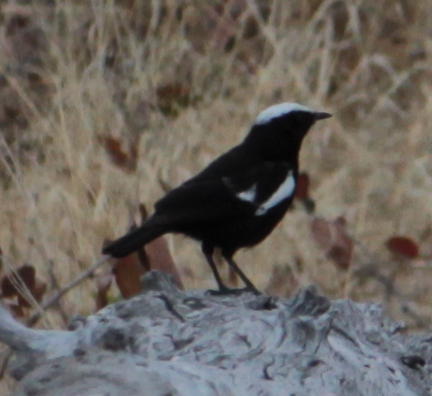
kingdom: Animalia
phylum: Chordata
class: Aves
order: Passeriformes
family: Muscicapidae
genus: Pentholaea
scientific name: Pentholaea arnotti
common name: Arnot's chat
